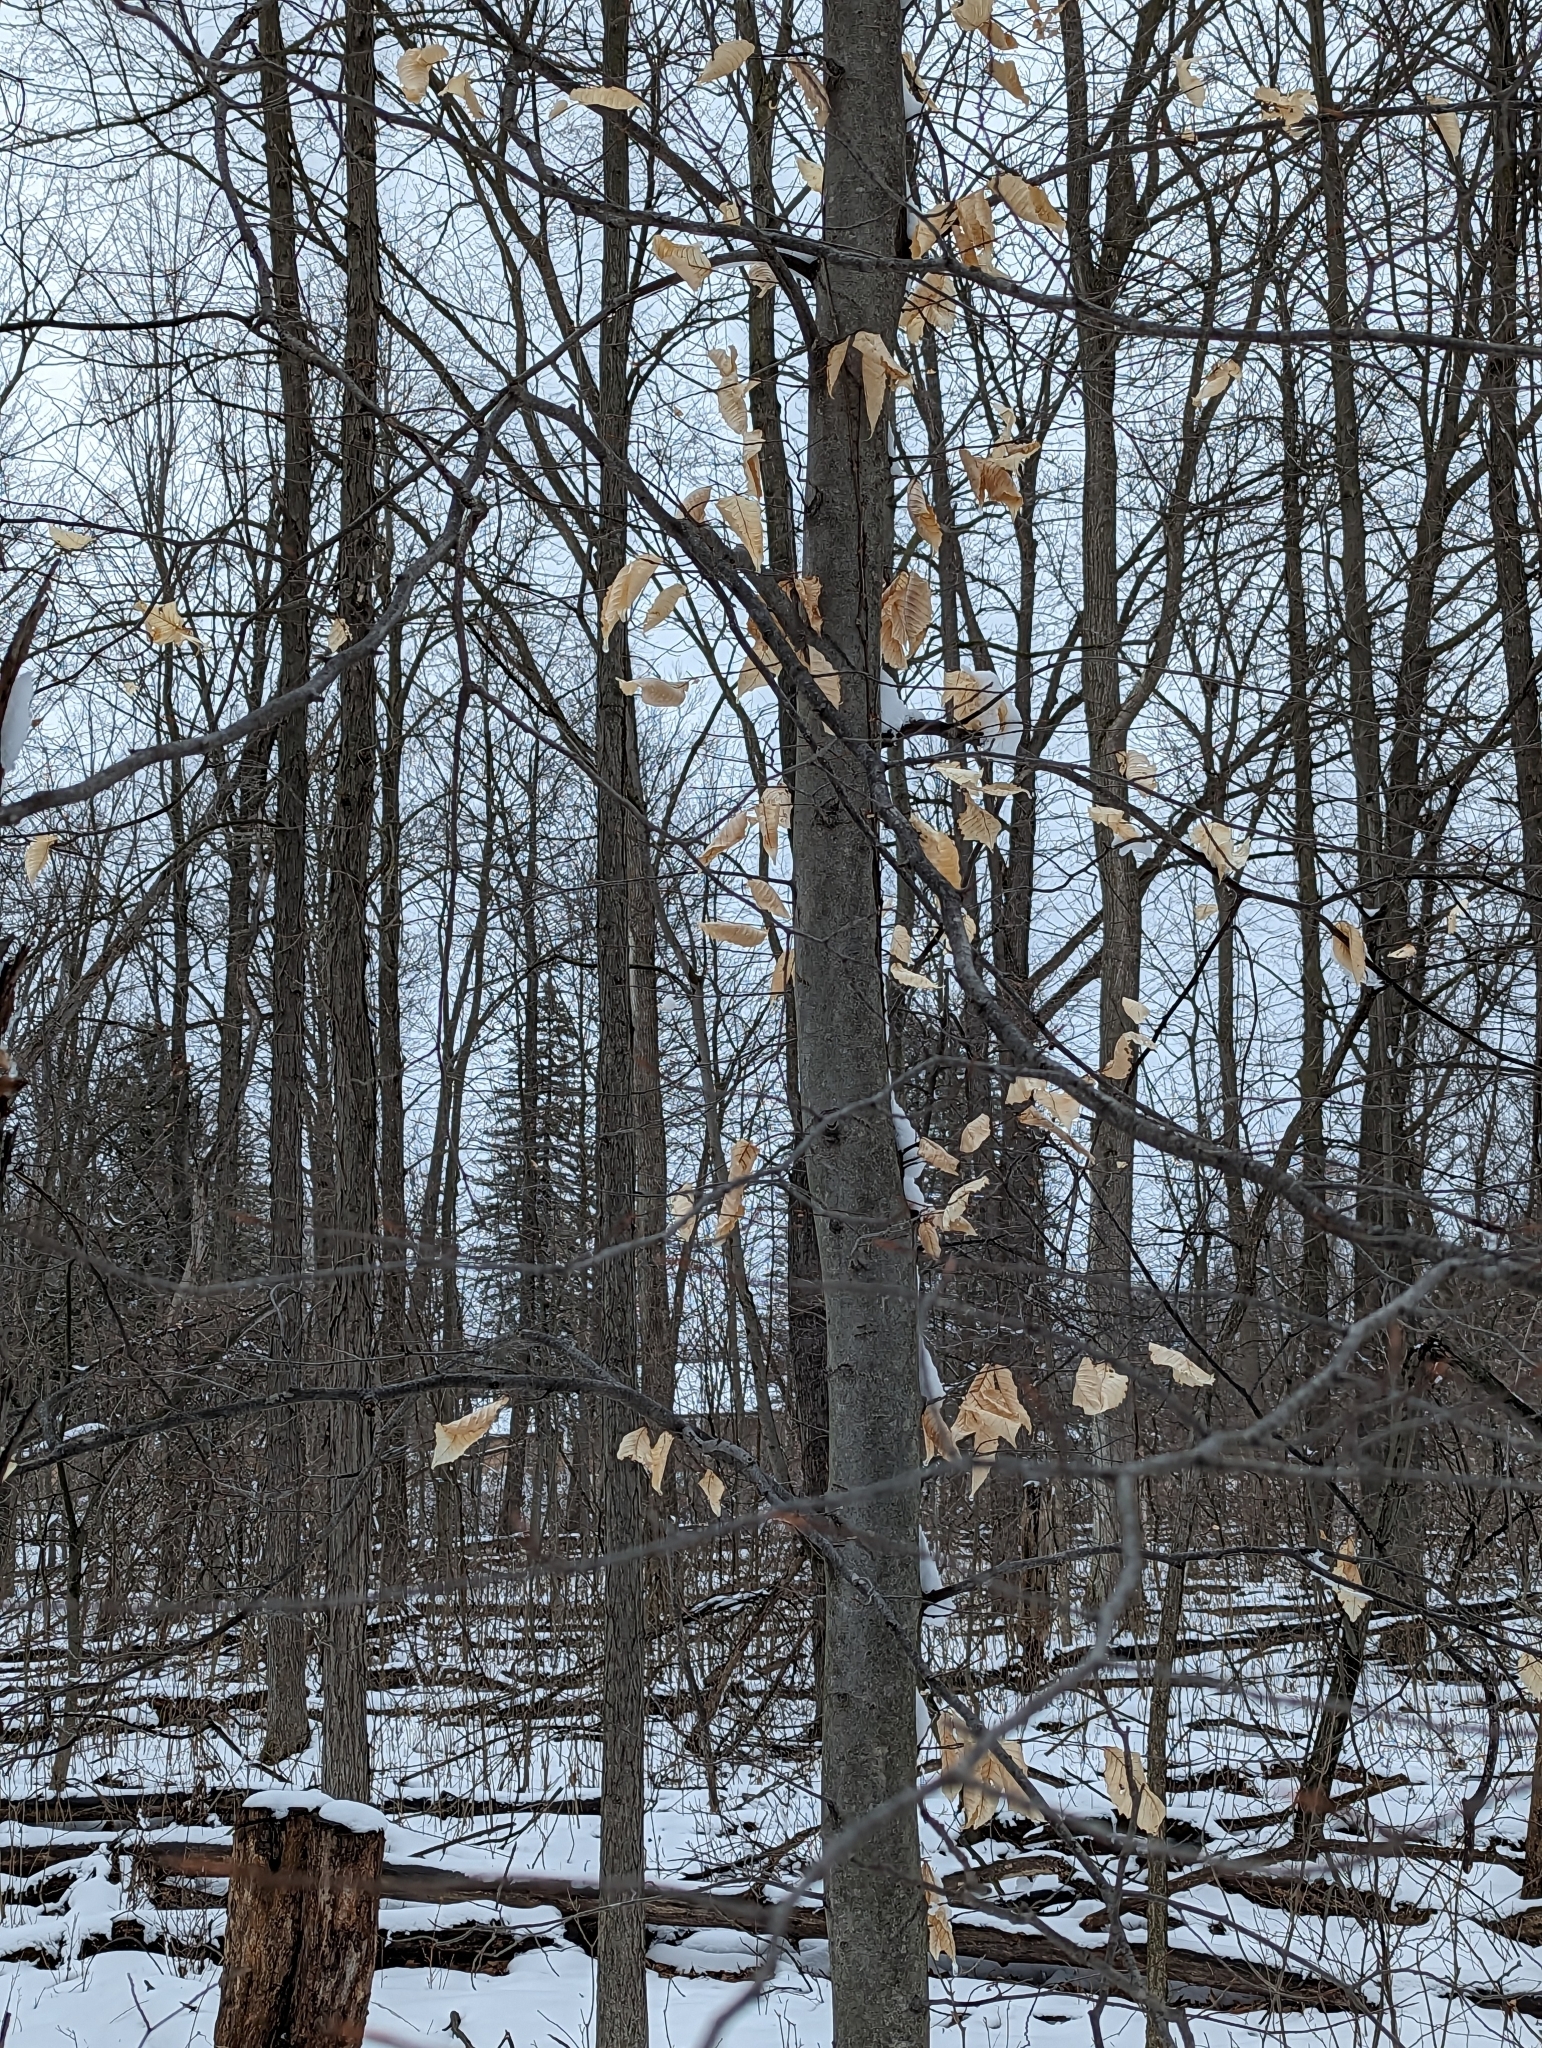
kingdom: Plantae
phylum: Tracheophyta
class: Magnoliopsida
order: Fagales
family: Fagaceae
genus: Fagus
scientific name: Fagus grandifolia
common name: American beech
